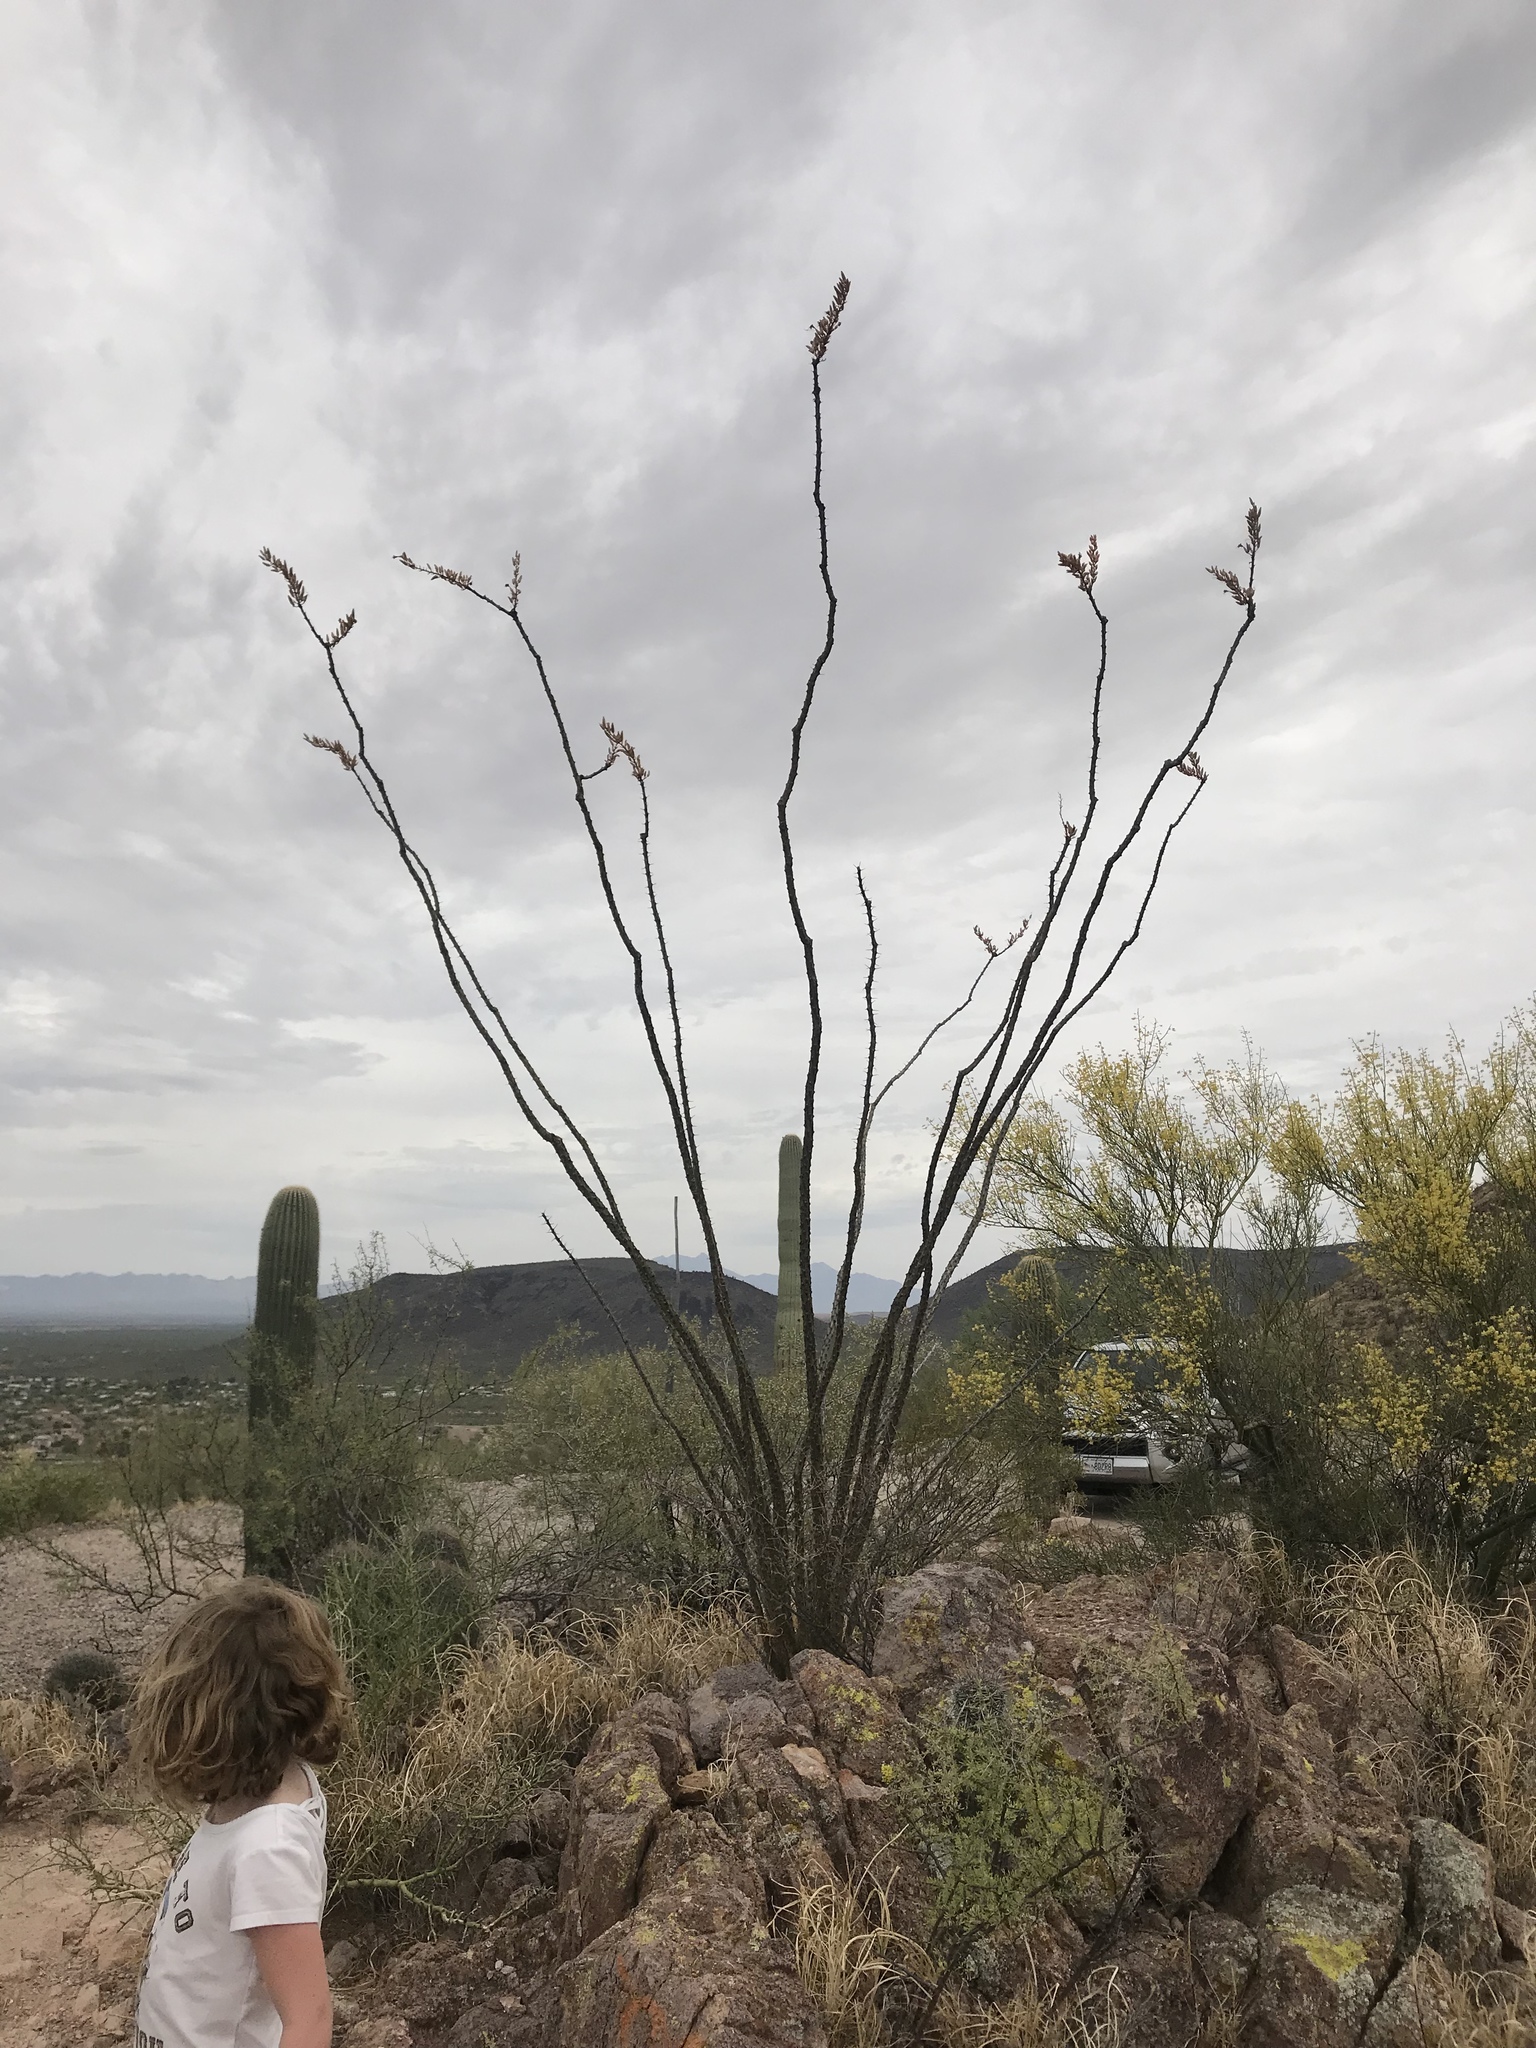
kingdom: Plantae
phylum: Tracheophyta
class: Magnoliopsida
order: Ericales
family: Fouquieriaceae
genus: Fouquieria
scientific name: Fouquieria splendens
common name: Vine-cactus
